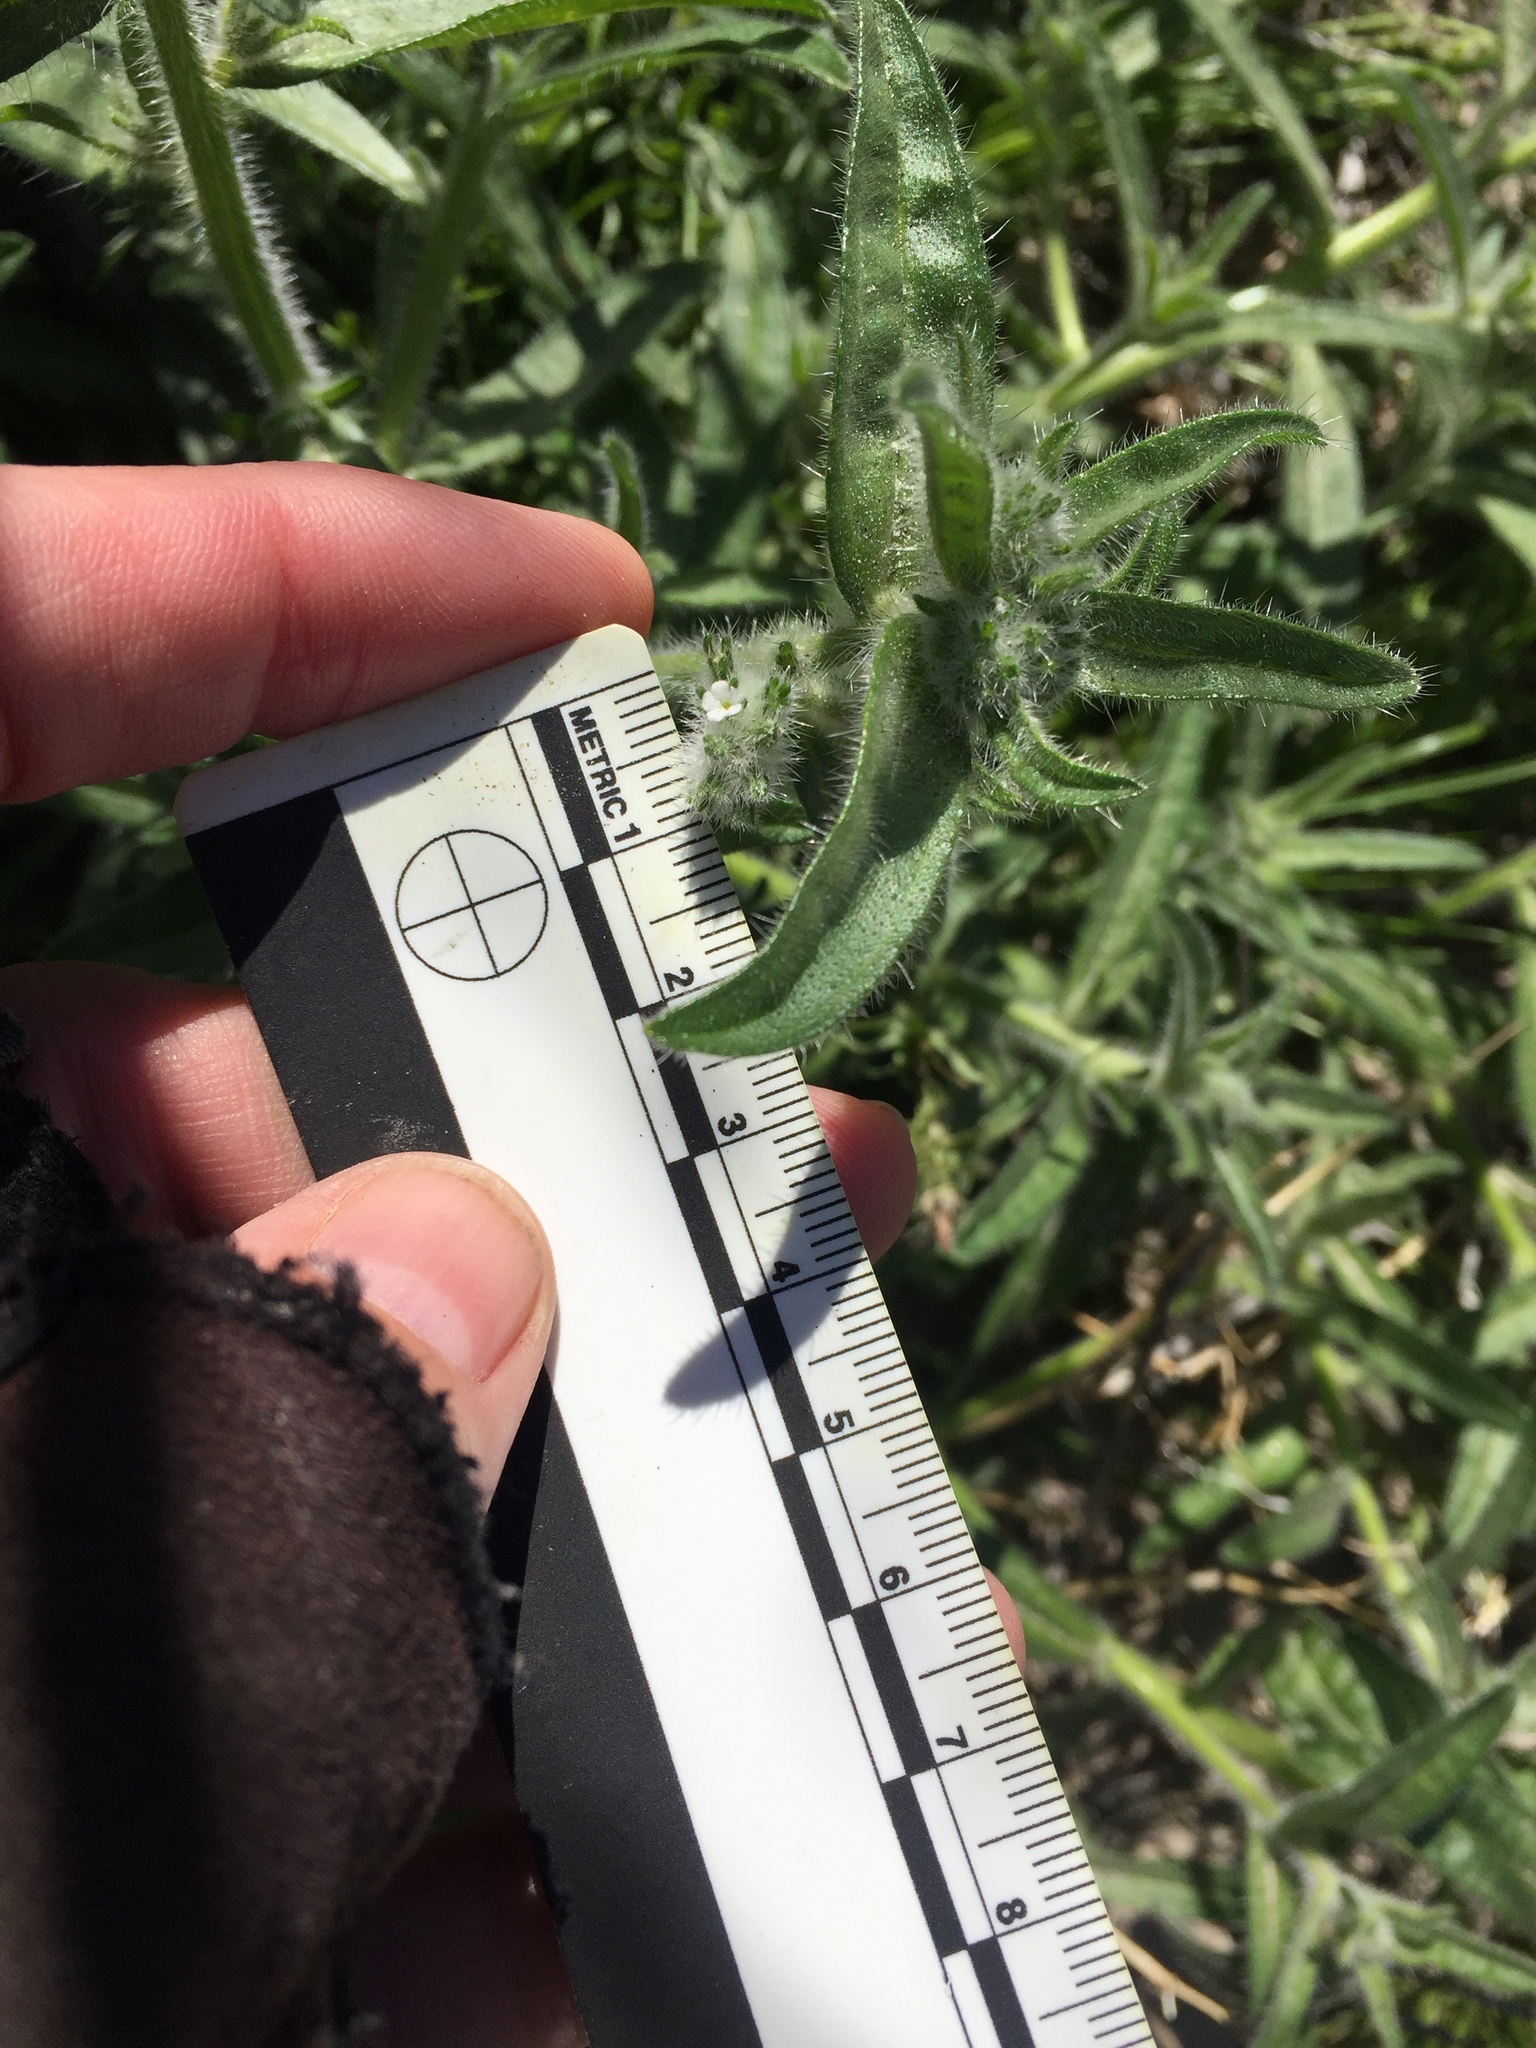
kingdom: Plantae
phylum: Tracheophyta
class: Magnoliopsida
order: Boraginales
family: Boraginaceae
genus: Cryptantha
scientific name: Cryptantha barbigera
